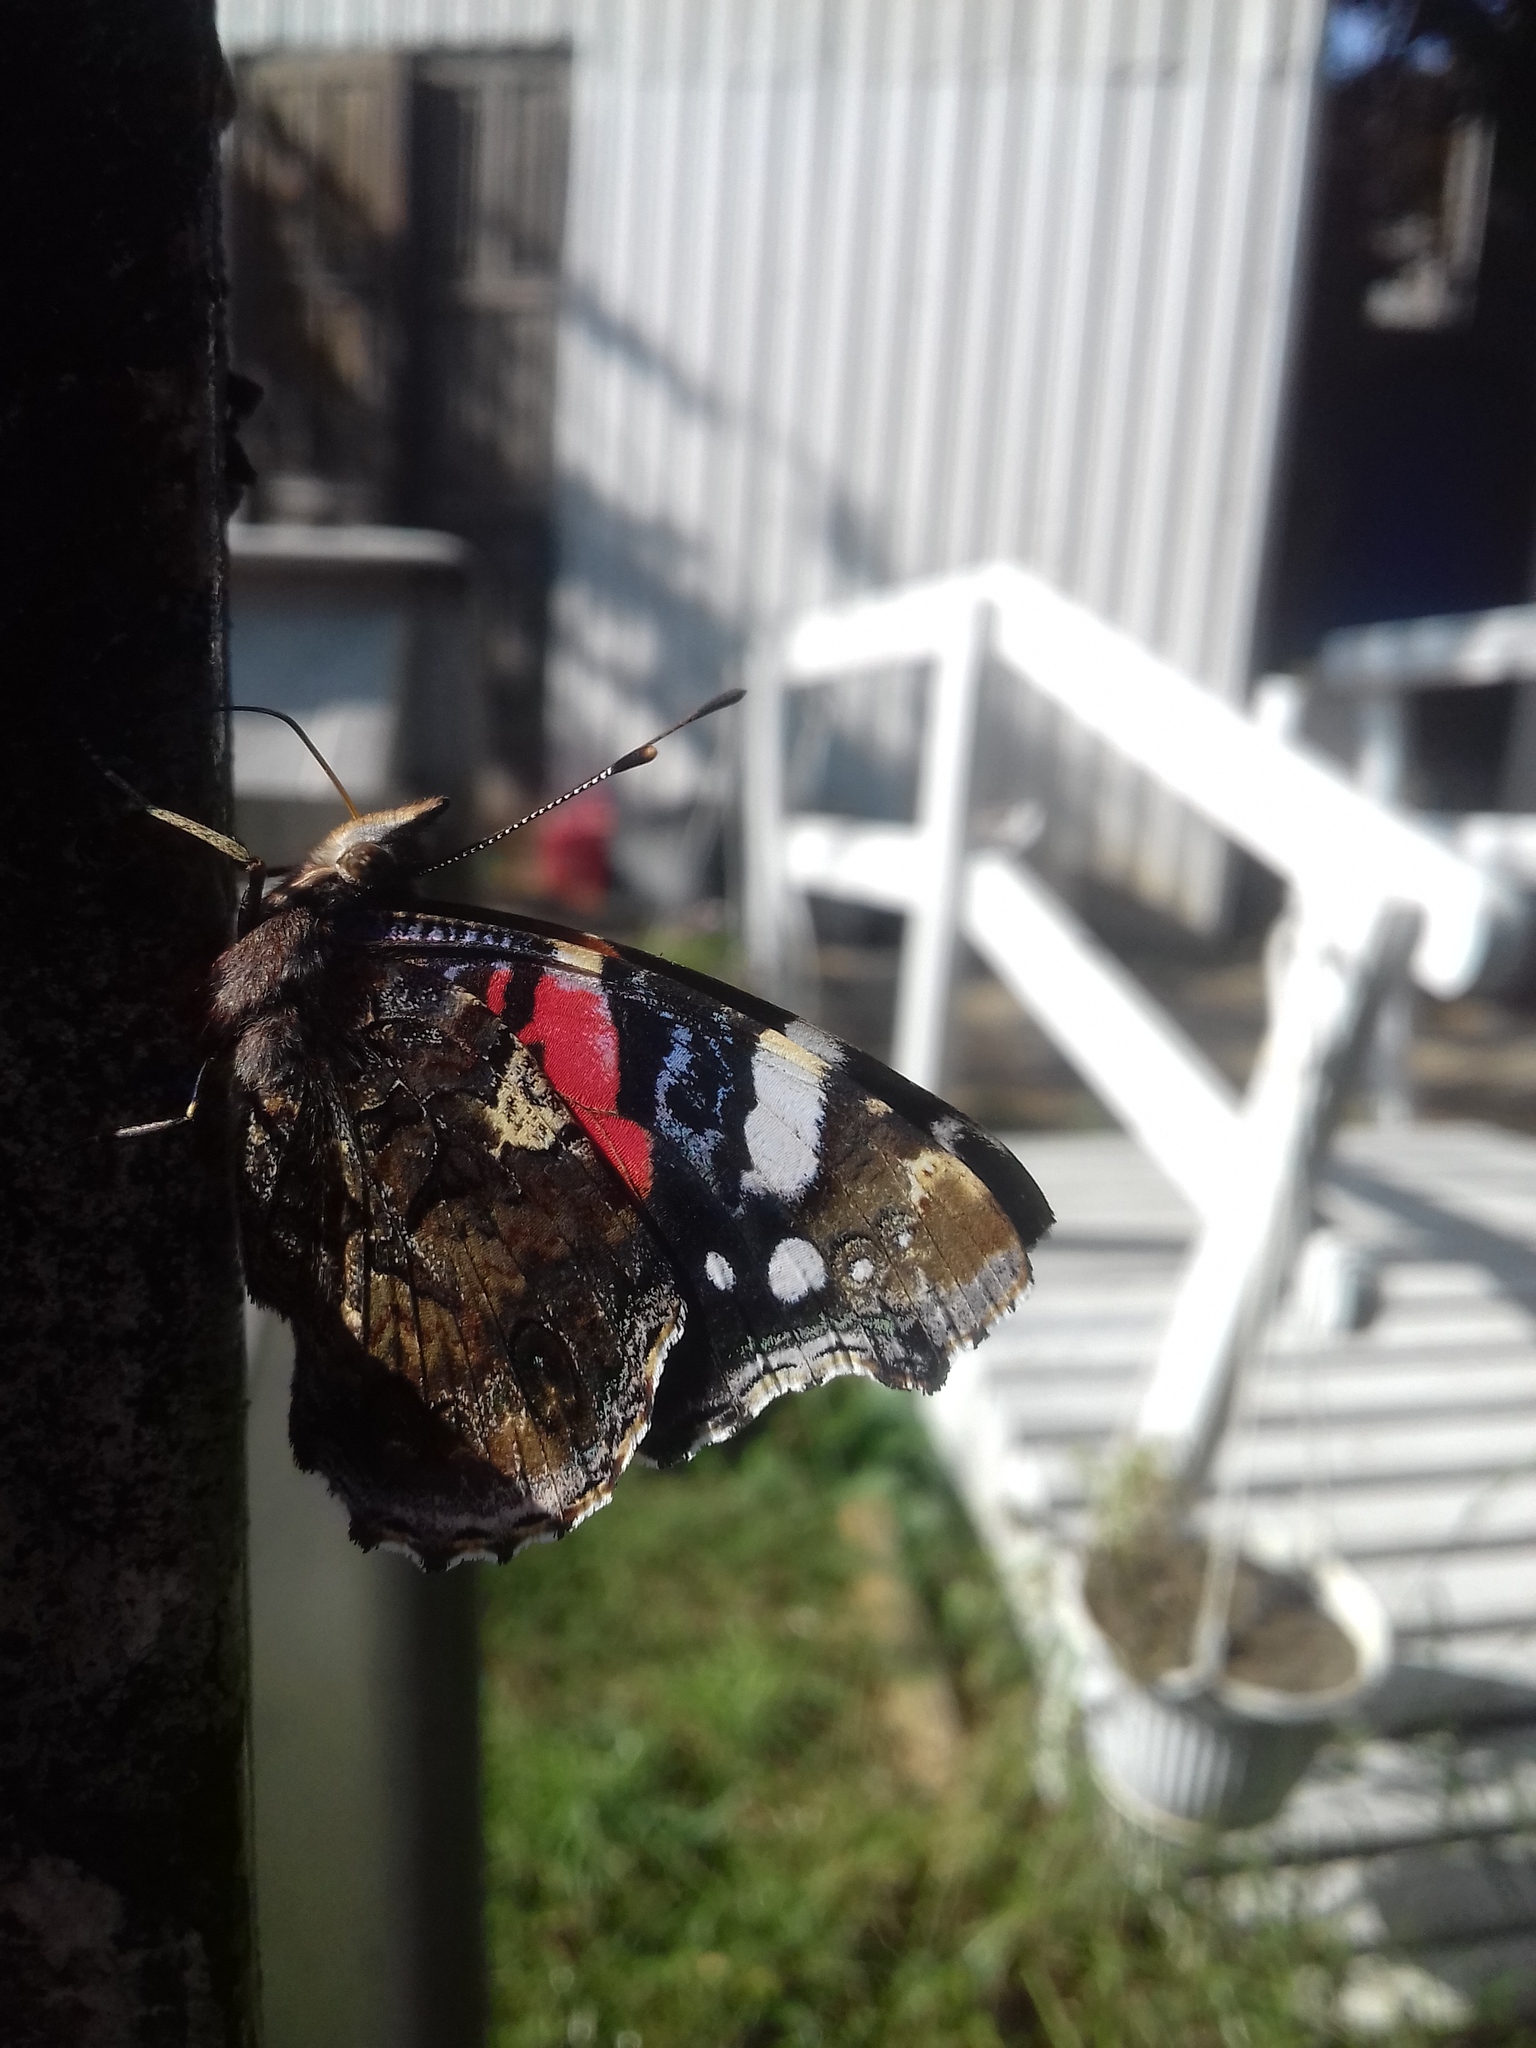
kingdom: Animalia
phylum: Arthropoda
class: Insecta
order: Lepidoptera
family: Nymphalidae
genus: Vanessa
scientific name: Vanessa atalanta
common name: Red admiral
